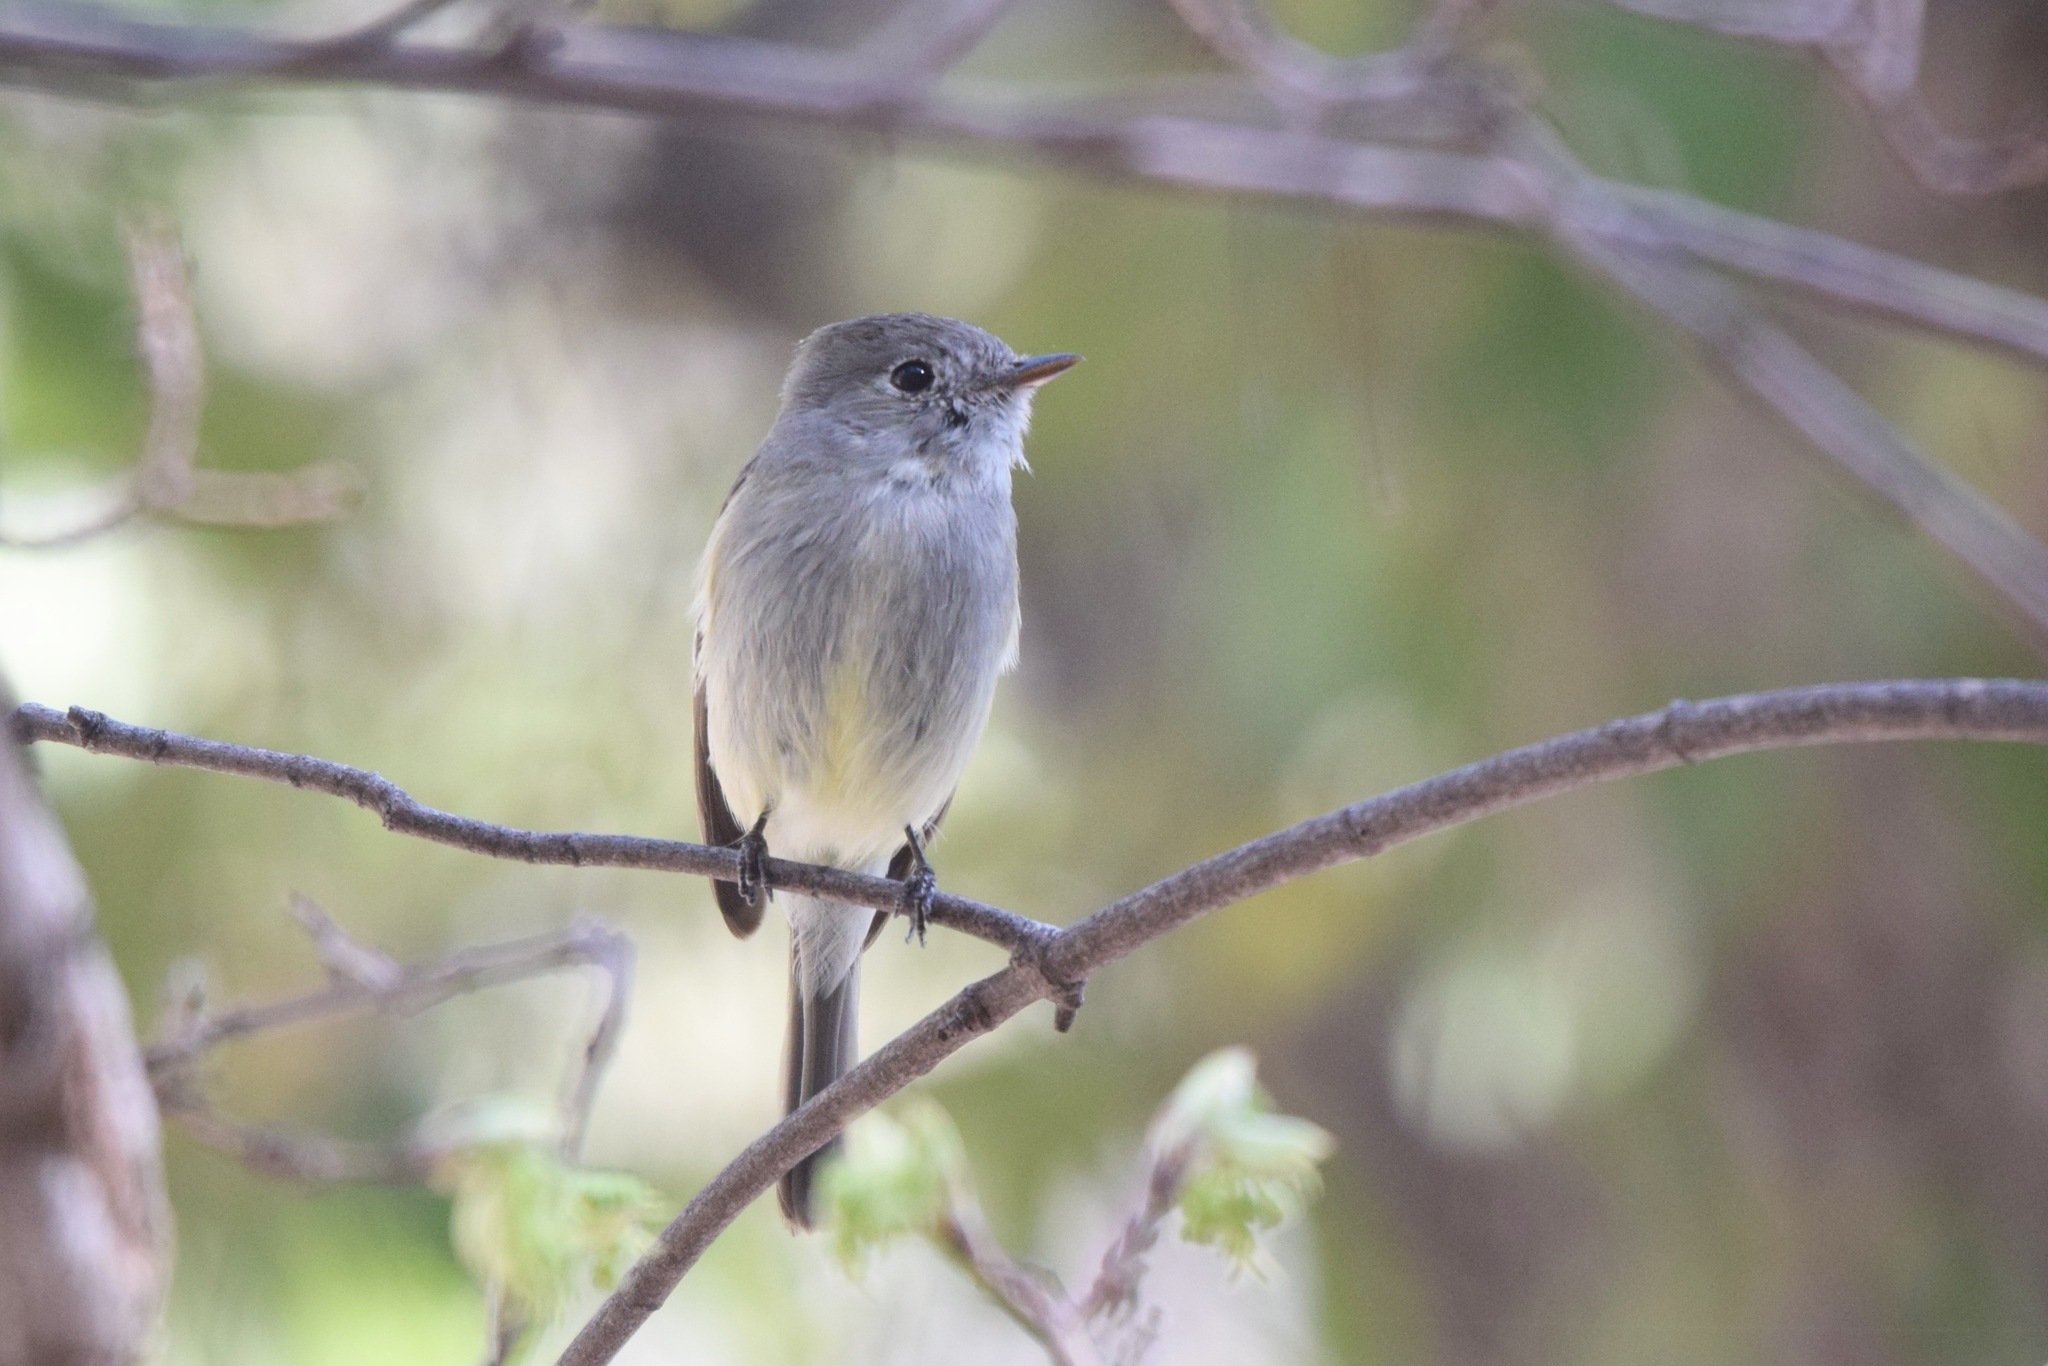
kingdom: Animalia
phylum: Chordata
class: Aves
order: Passeriformes
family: Tyrannidae
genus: Empidonax
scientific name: Empidonax hammondii
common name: Hammond's flycatcher
